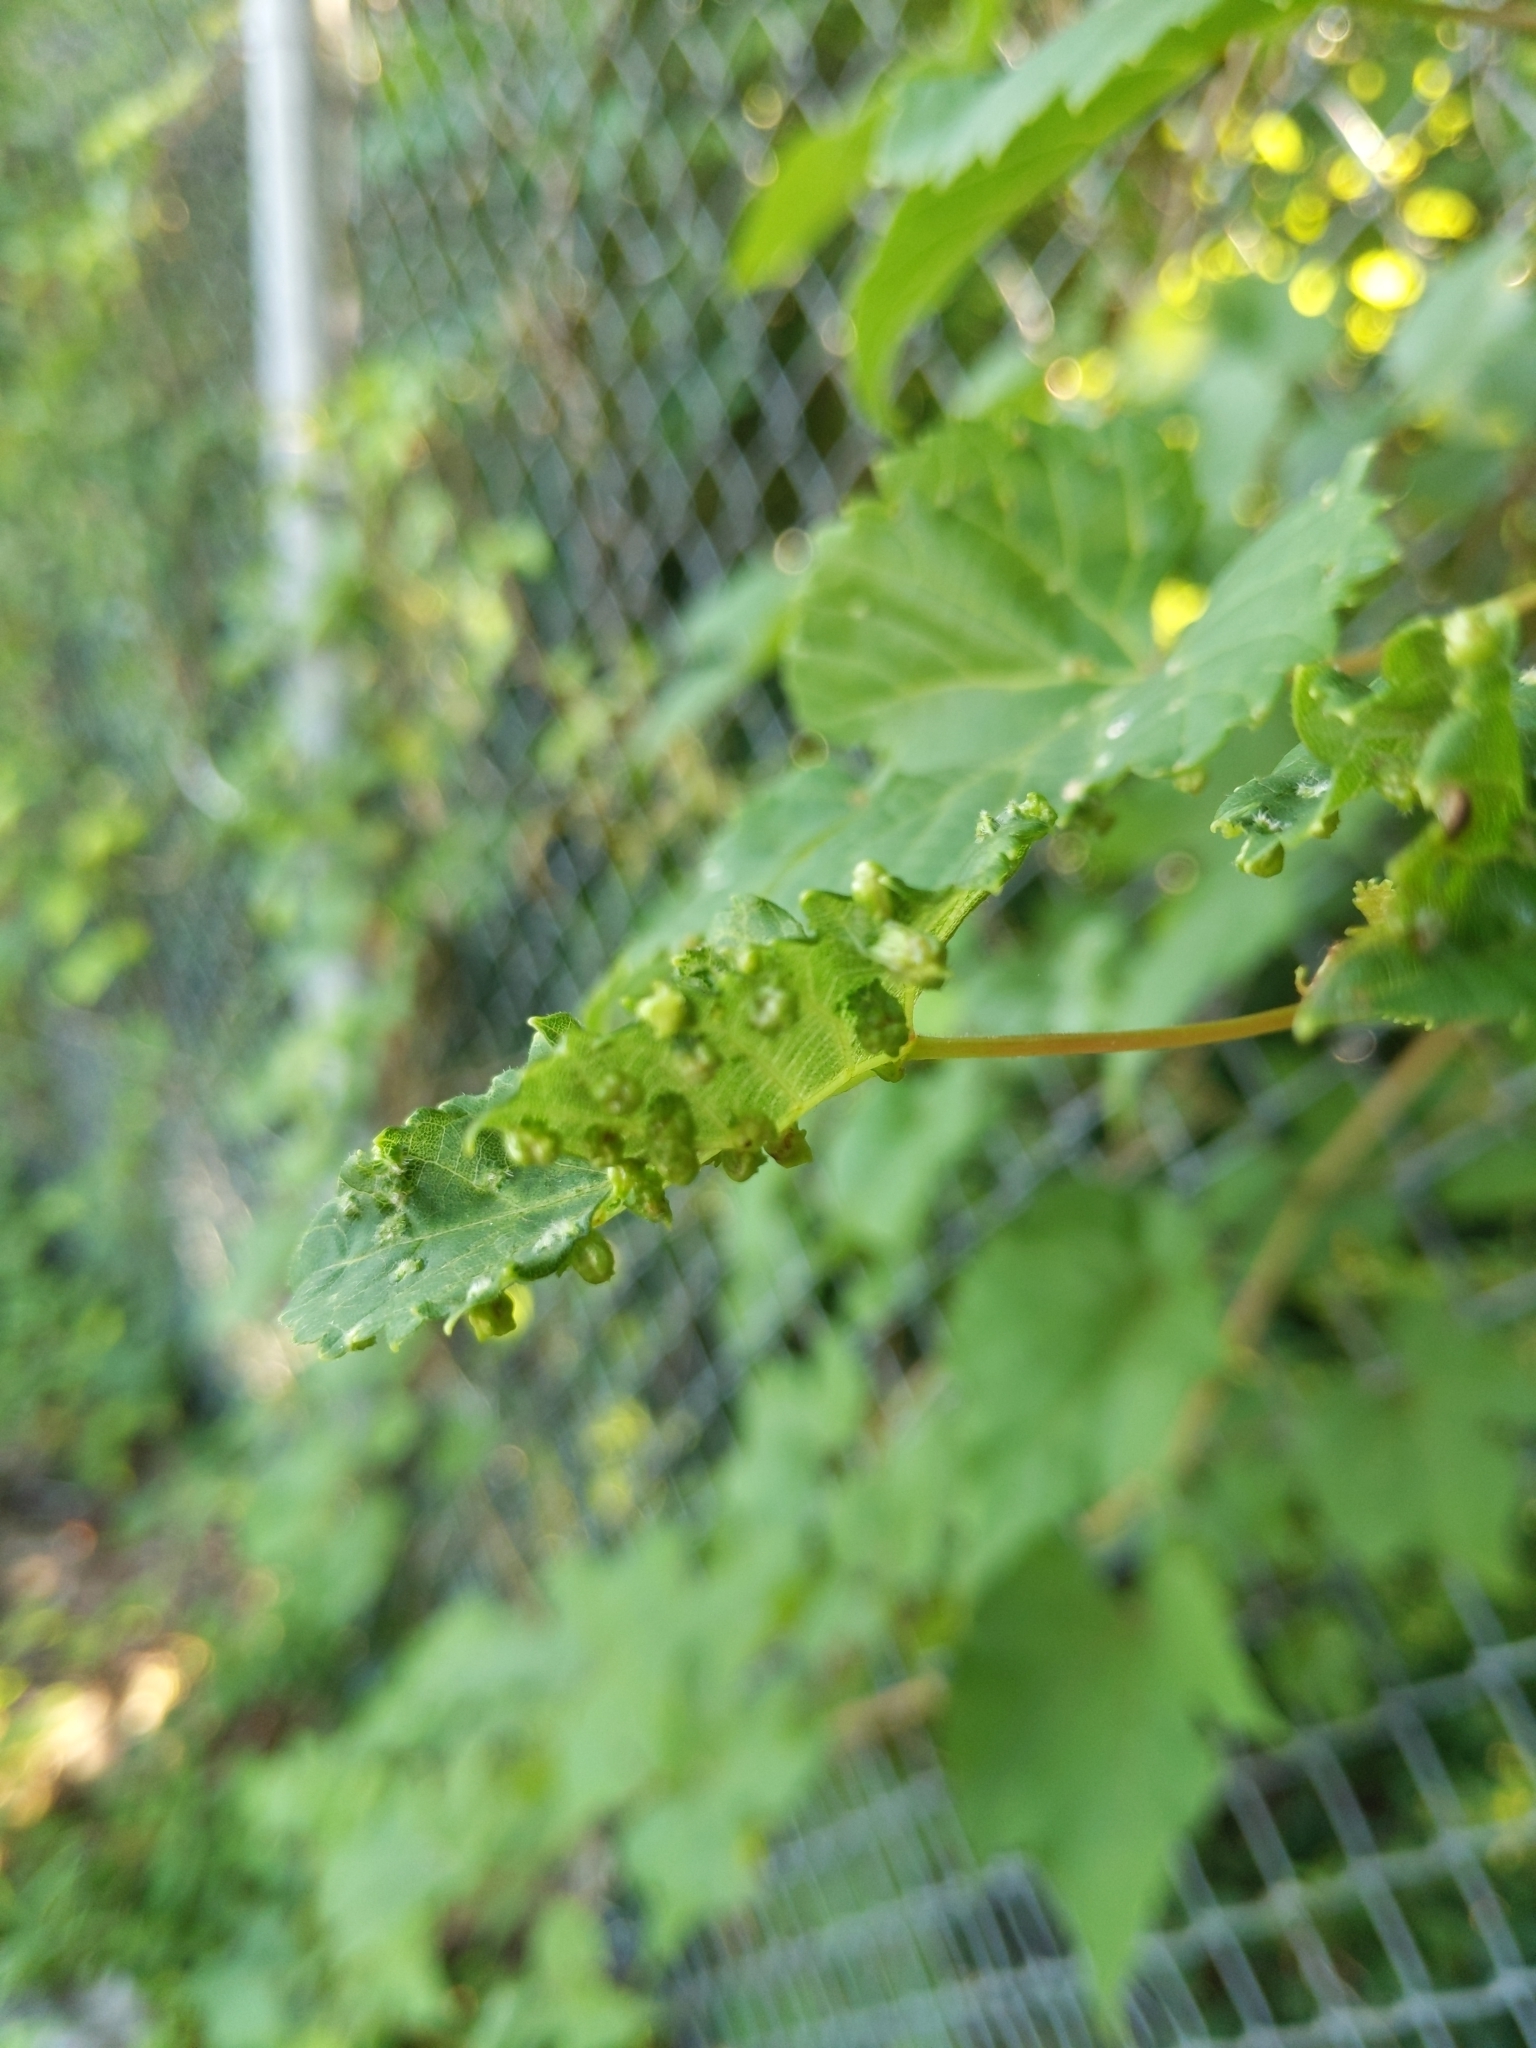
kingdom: Animalia
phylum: Arthropoda
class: Insecta
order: Hemiptera
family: Phylloxeridae
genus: Daktulosphaira
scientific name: Daktulosphaira vitifoliae
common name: Grape phylloxera
